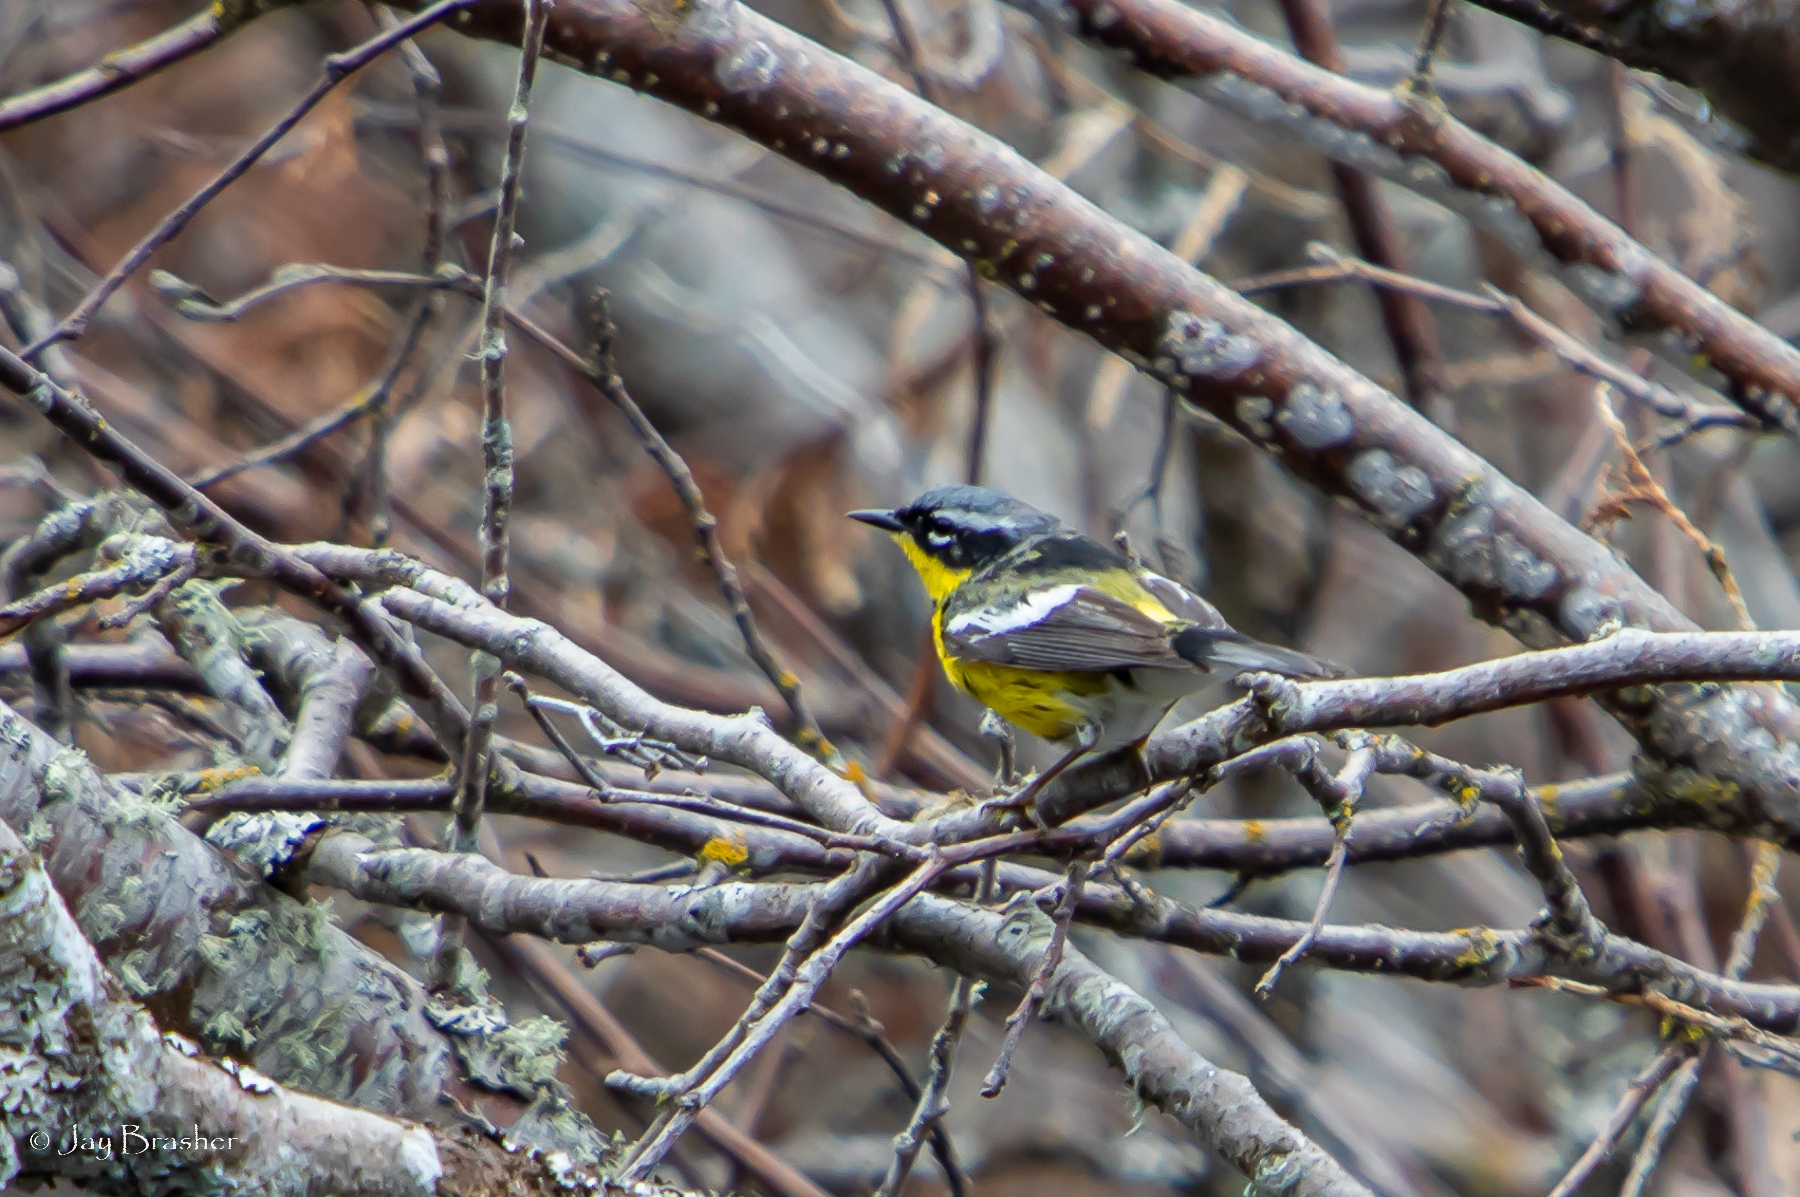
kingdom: Animalia
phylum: Chordata
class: Aves
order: Passeriformes
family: Parulidae
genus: Setophaga
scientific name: Setophaga magnolia
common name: Magnolia warbler
